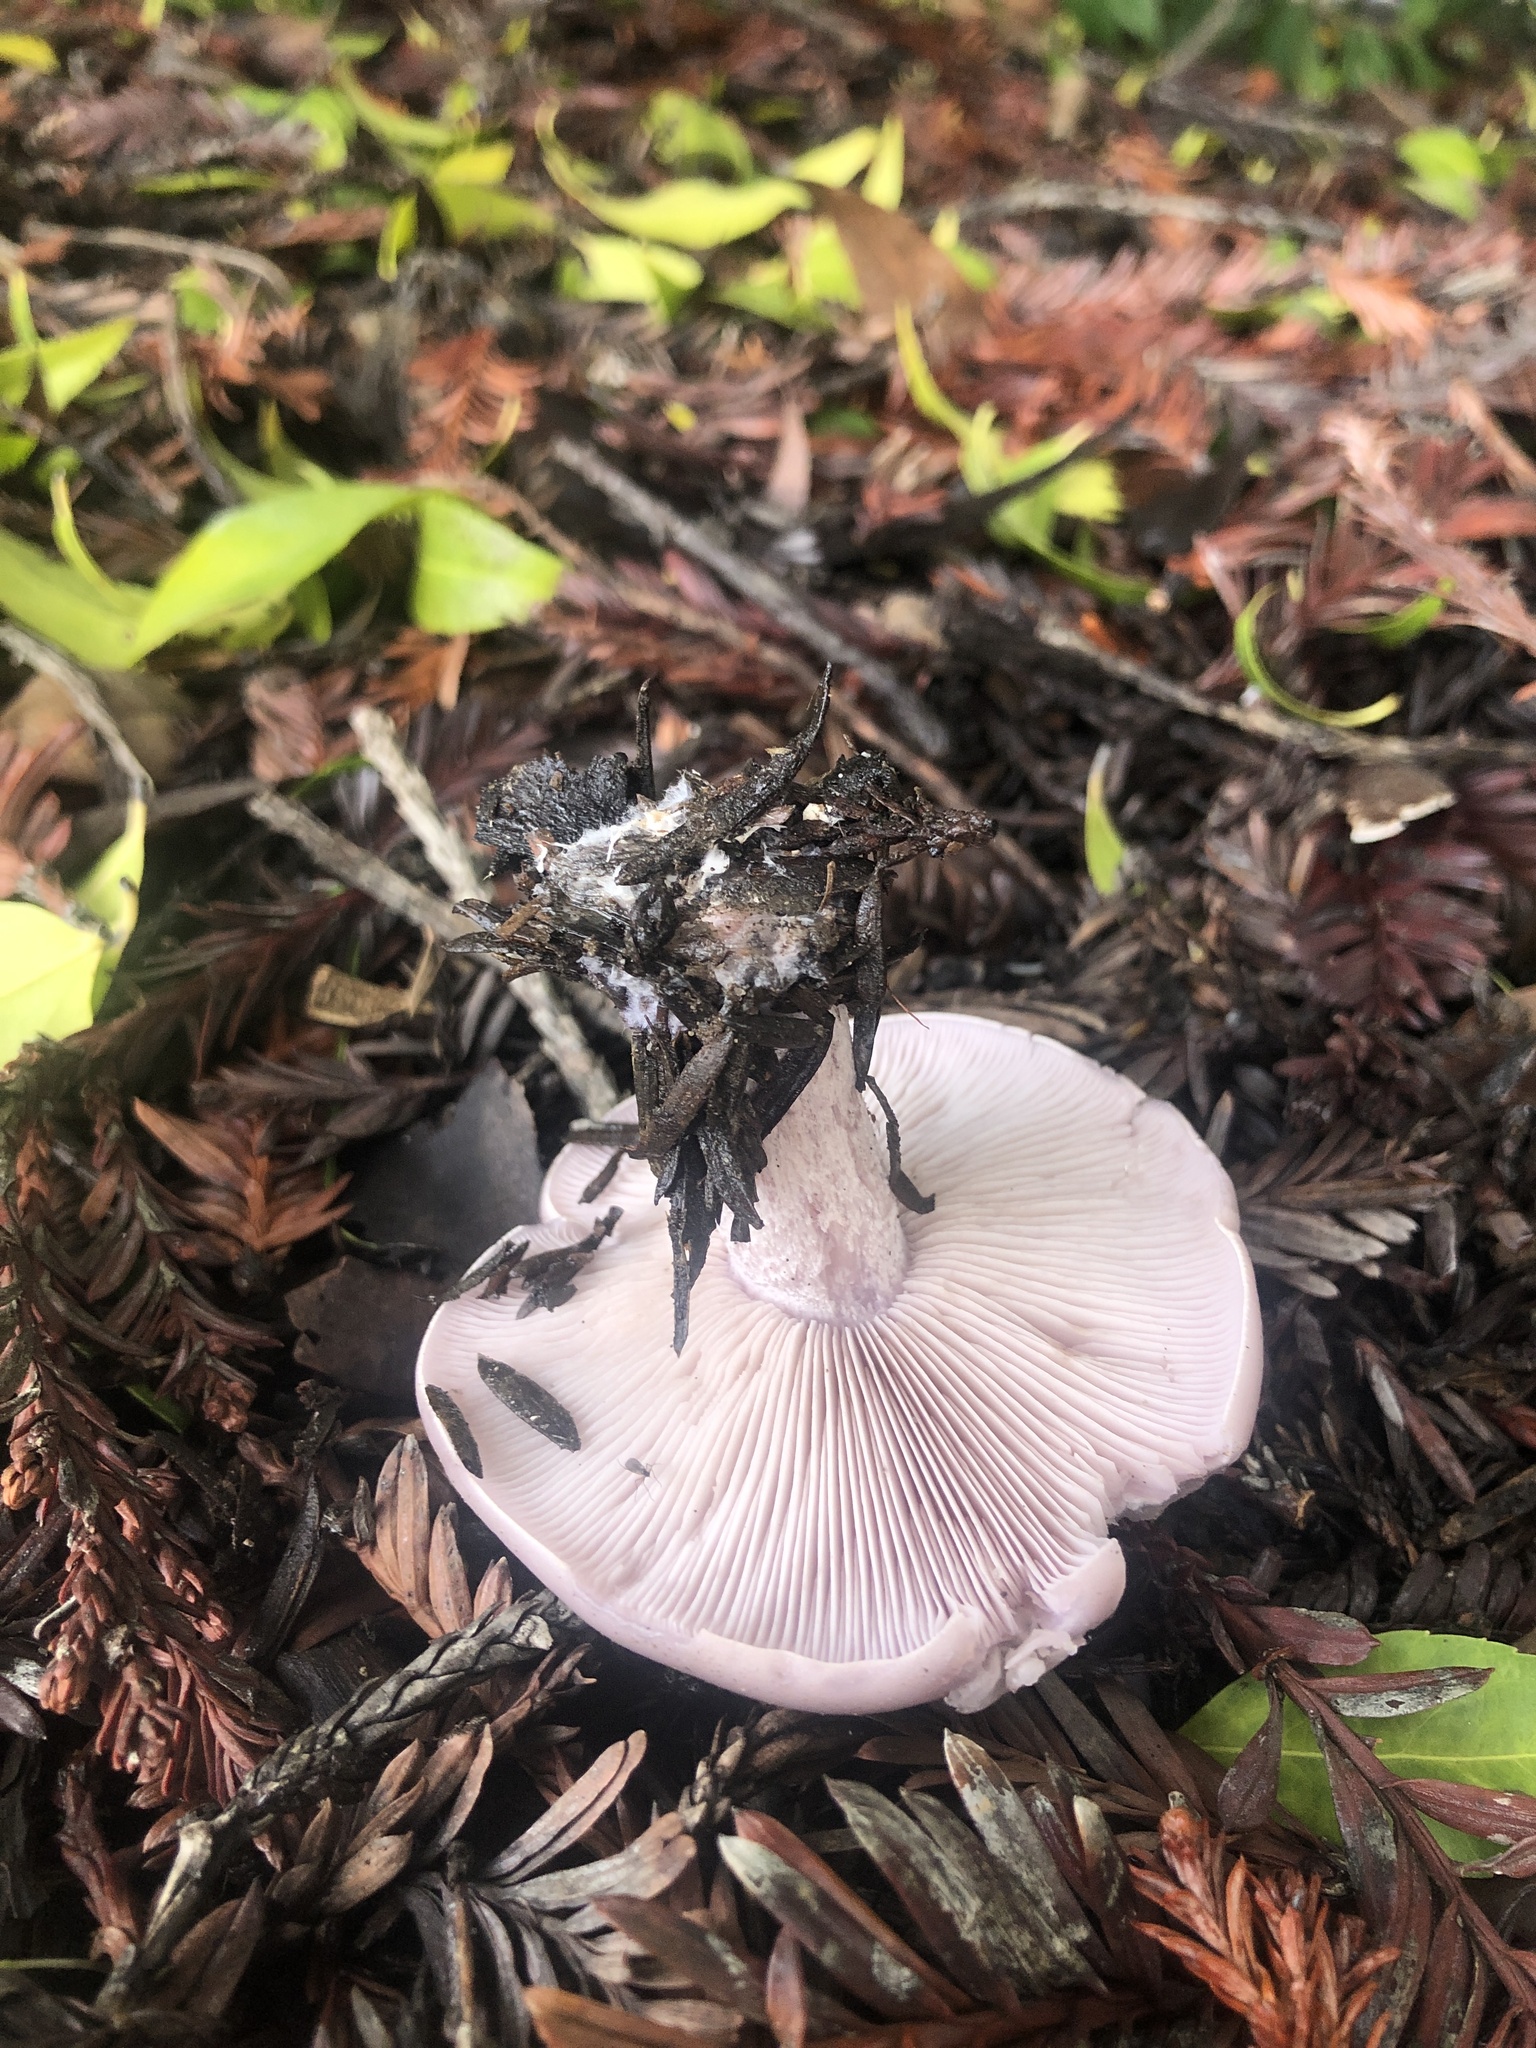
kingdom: Fungi
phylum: Basidiomycota
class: Agaricomycetes
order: Agaricales
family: Tricholomataceae
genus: Collybia
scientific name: Collybia
